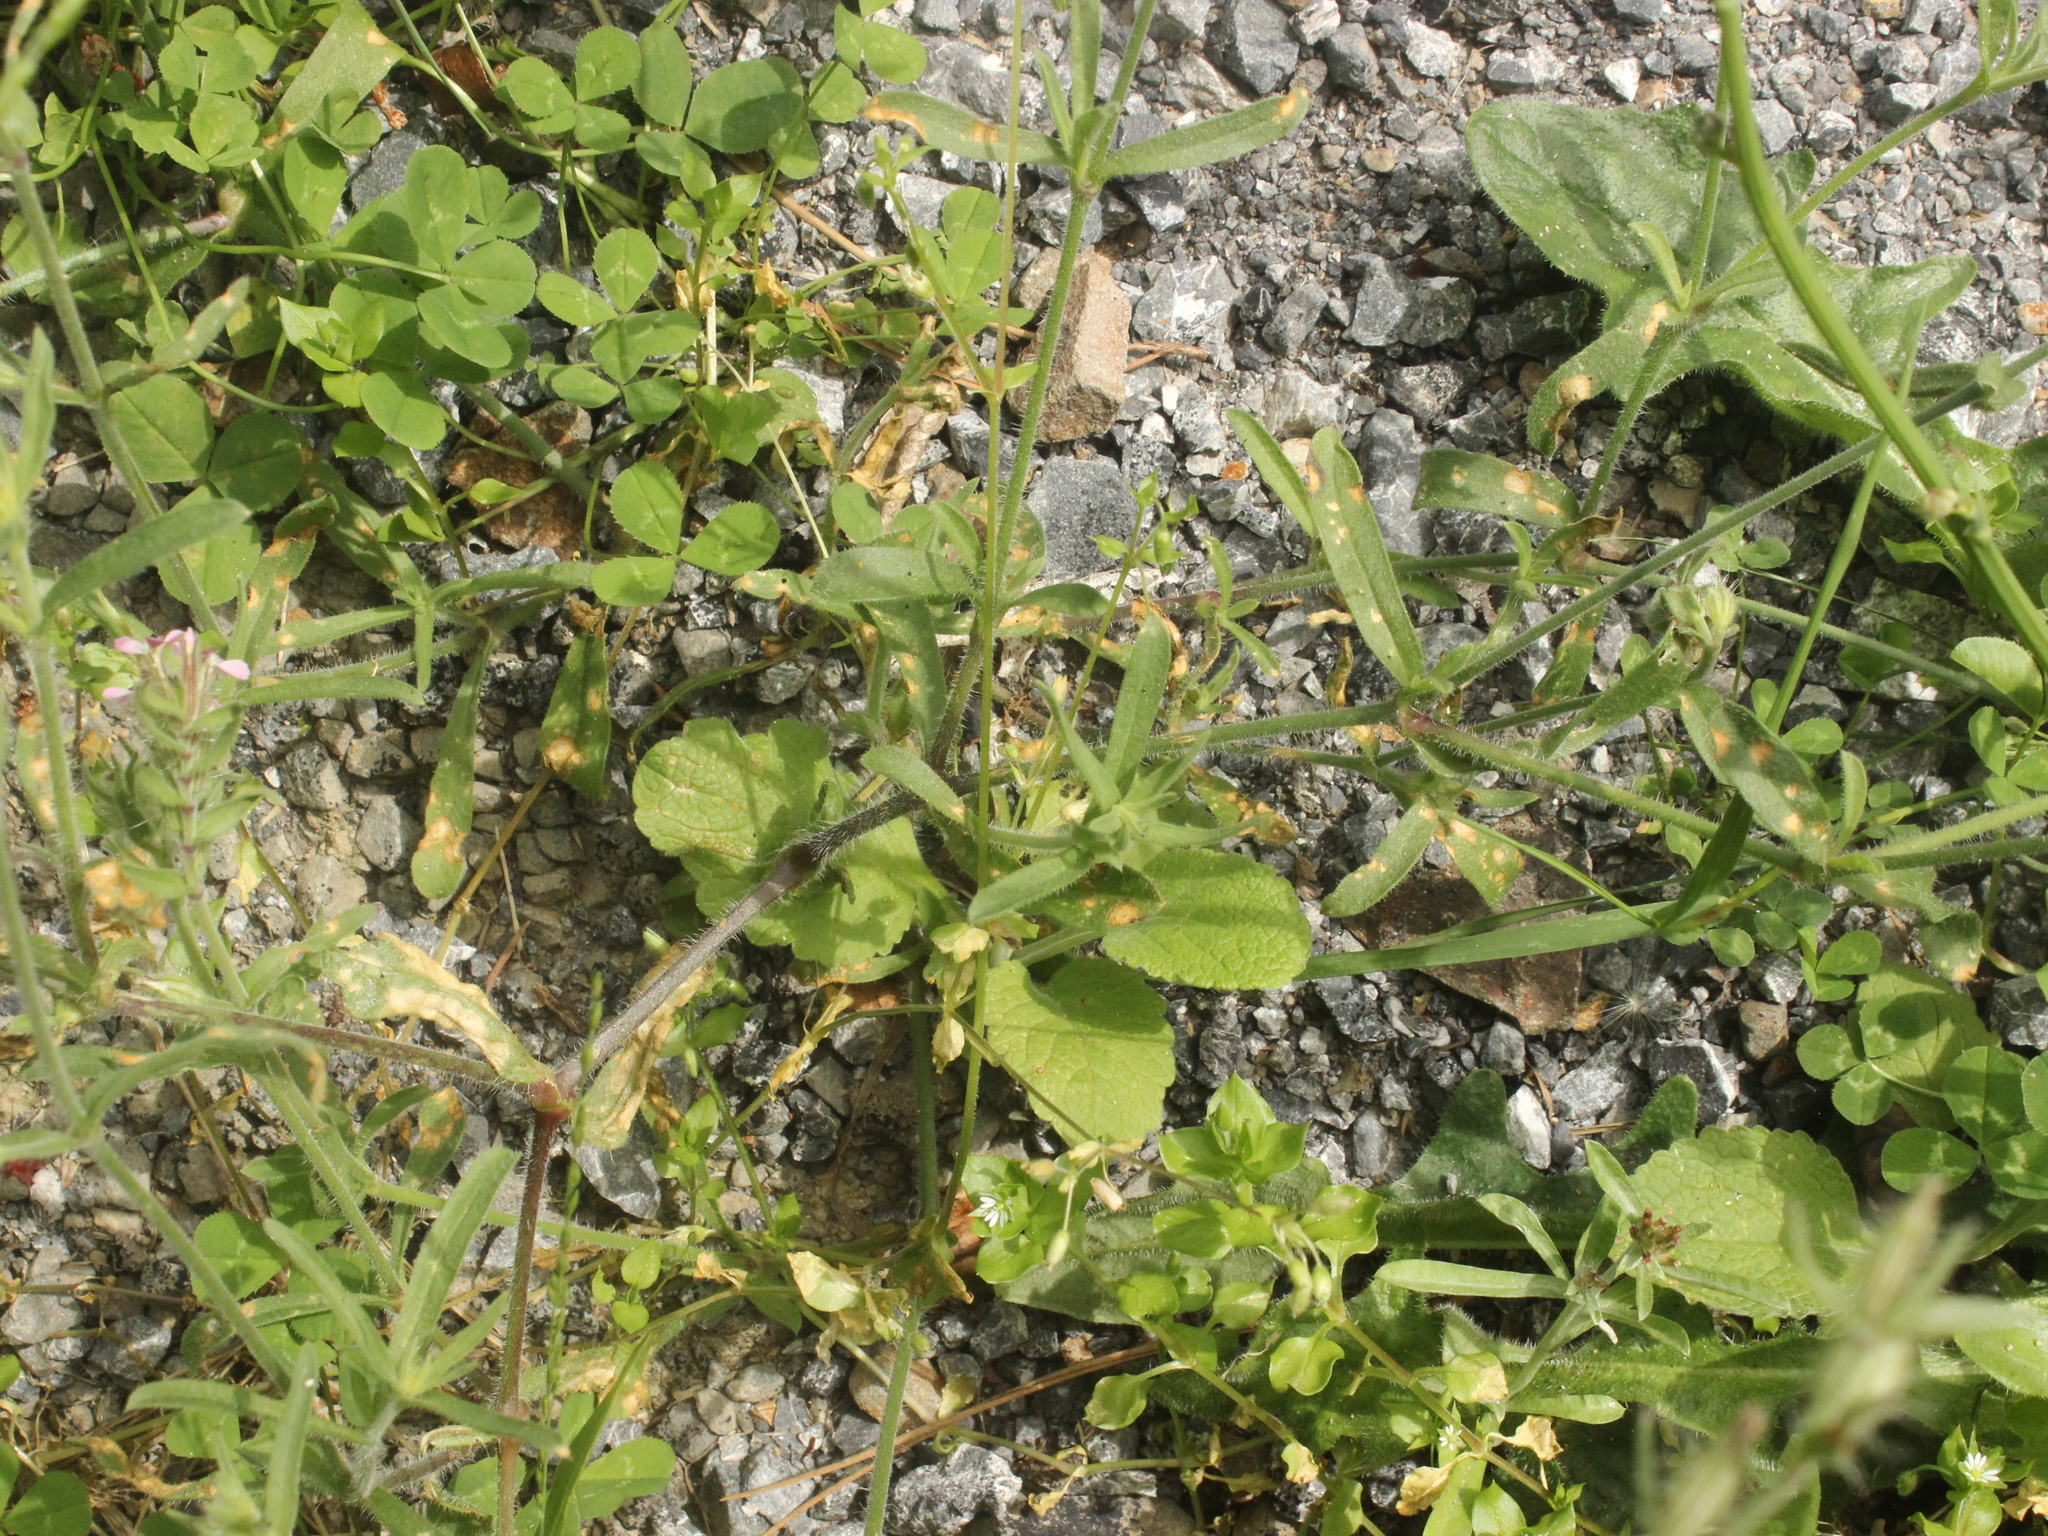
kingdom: Plantae
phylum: Tracheophyta
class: Magnoliopsida
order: Caryophyllales
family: Caryophyllaceae
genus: Silene
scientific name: Silene gallica
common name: Small-flowered catchfly
